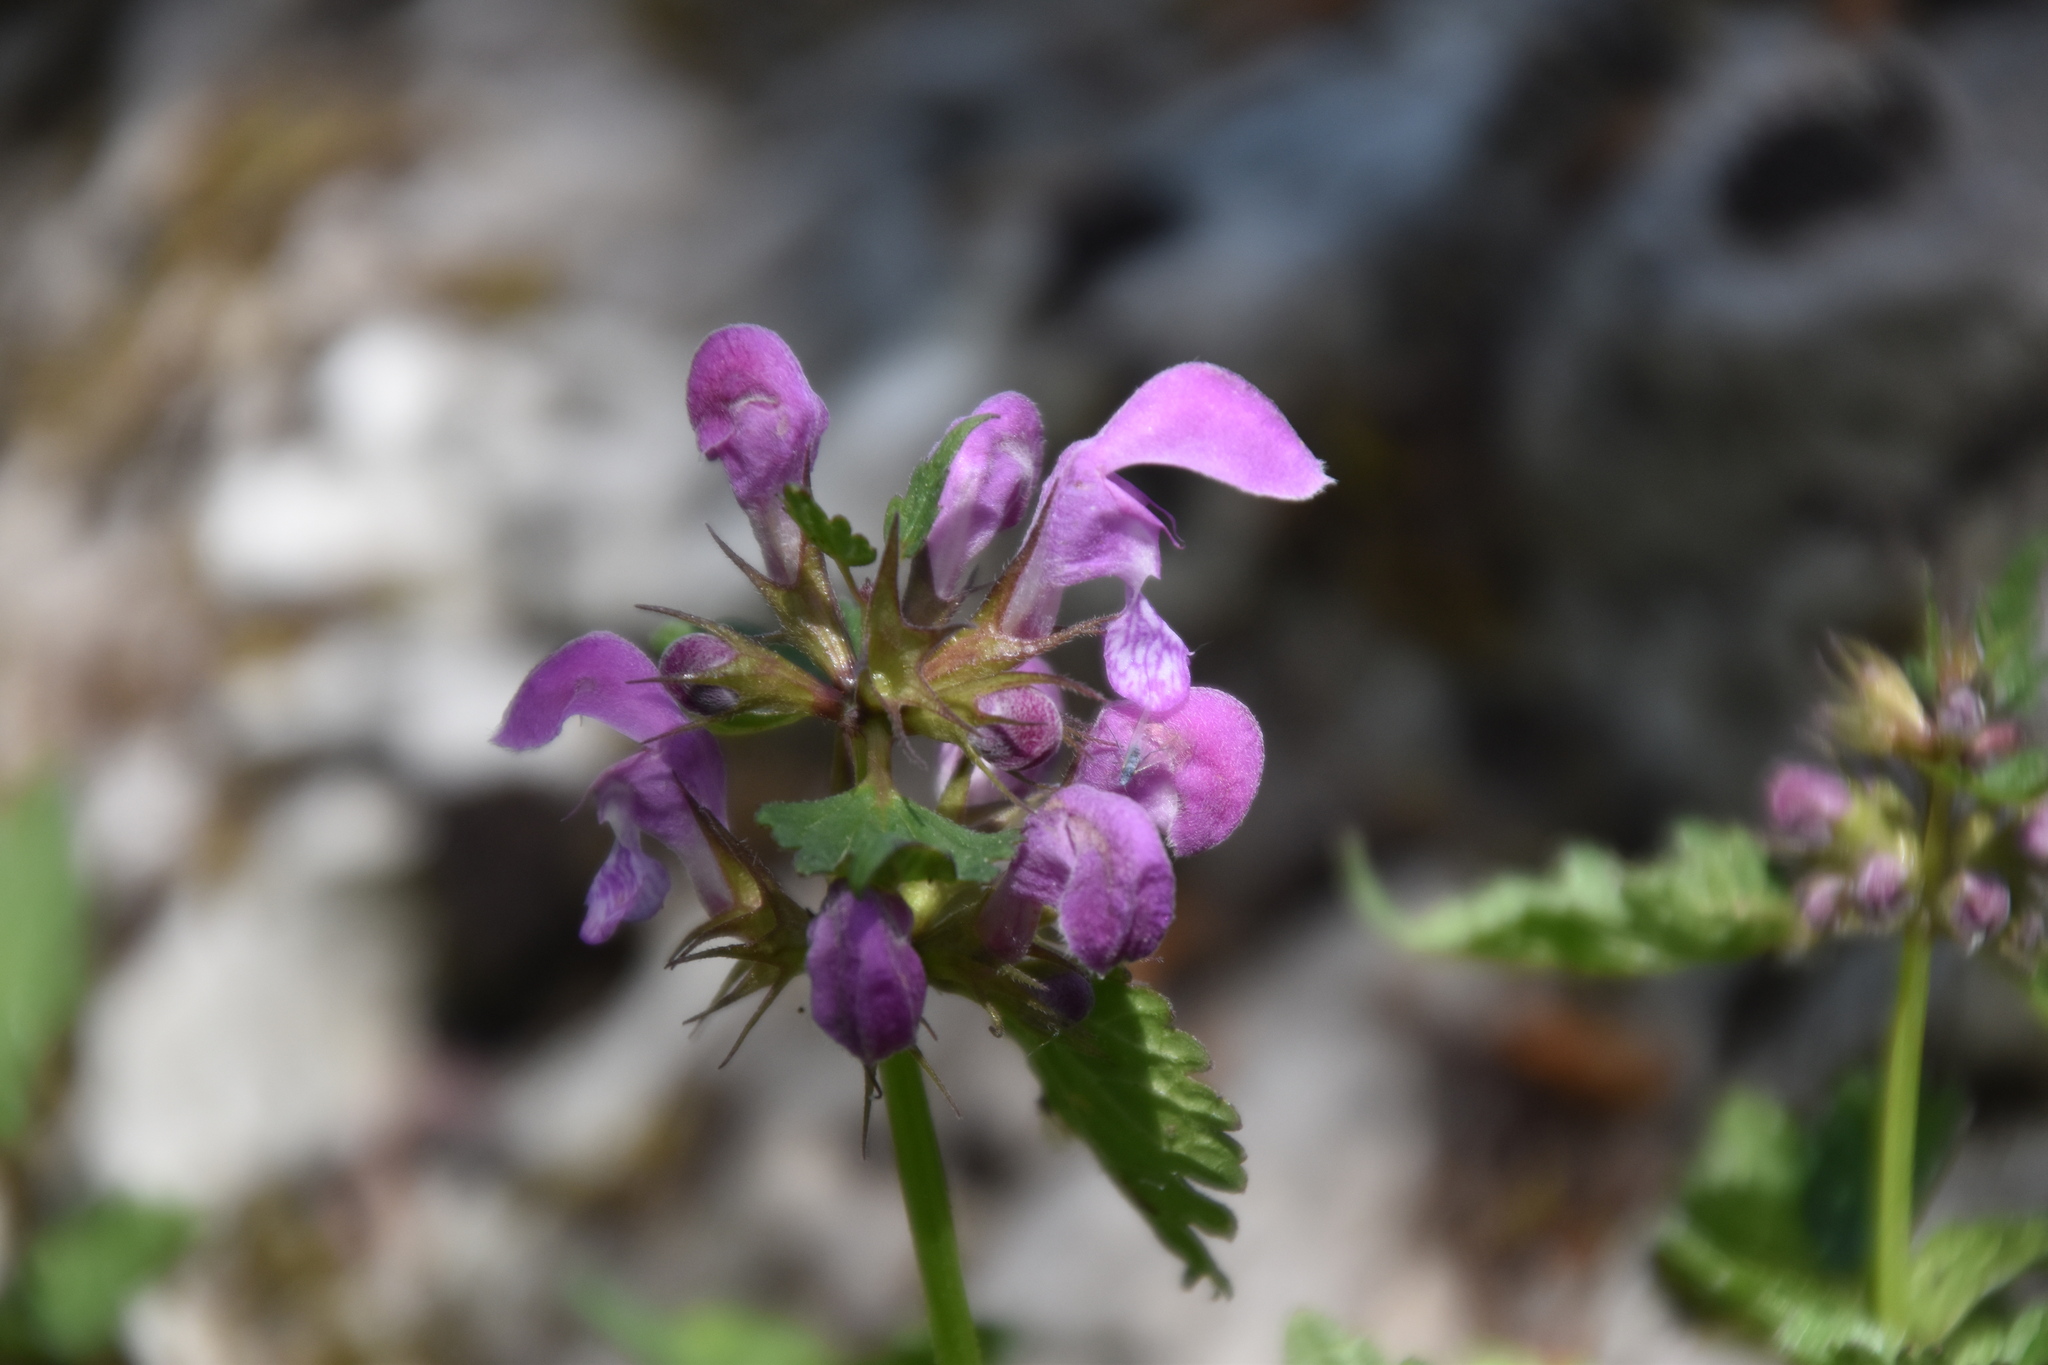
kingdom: Plantae
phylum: Tracheophyta
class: Magnoliopsida
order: Lamiales
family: Lamiaceae
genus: Lamium
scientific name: Lamium maculatum
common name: Spotted dead-nettle
